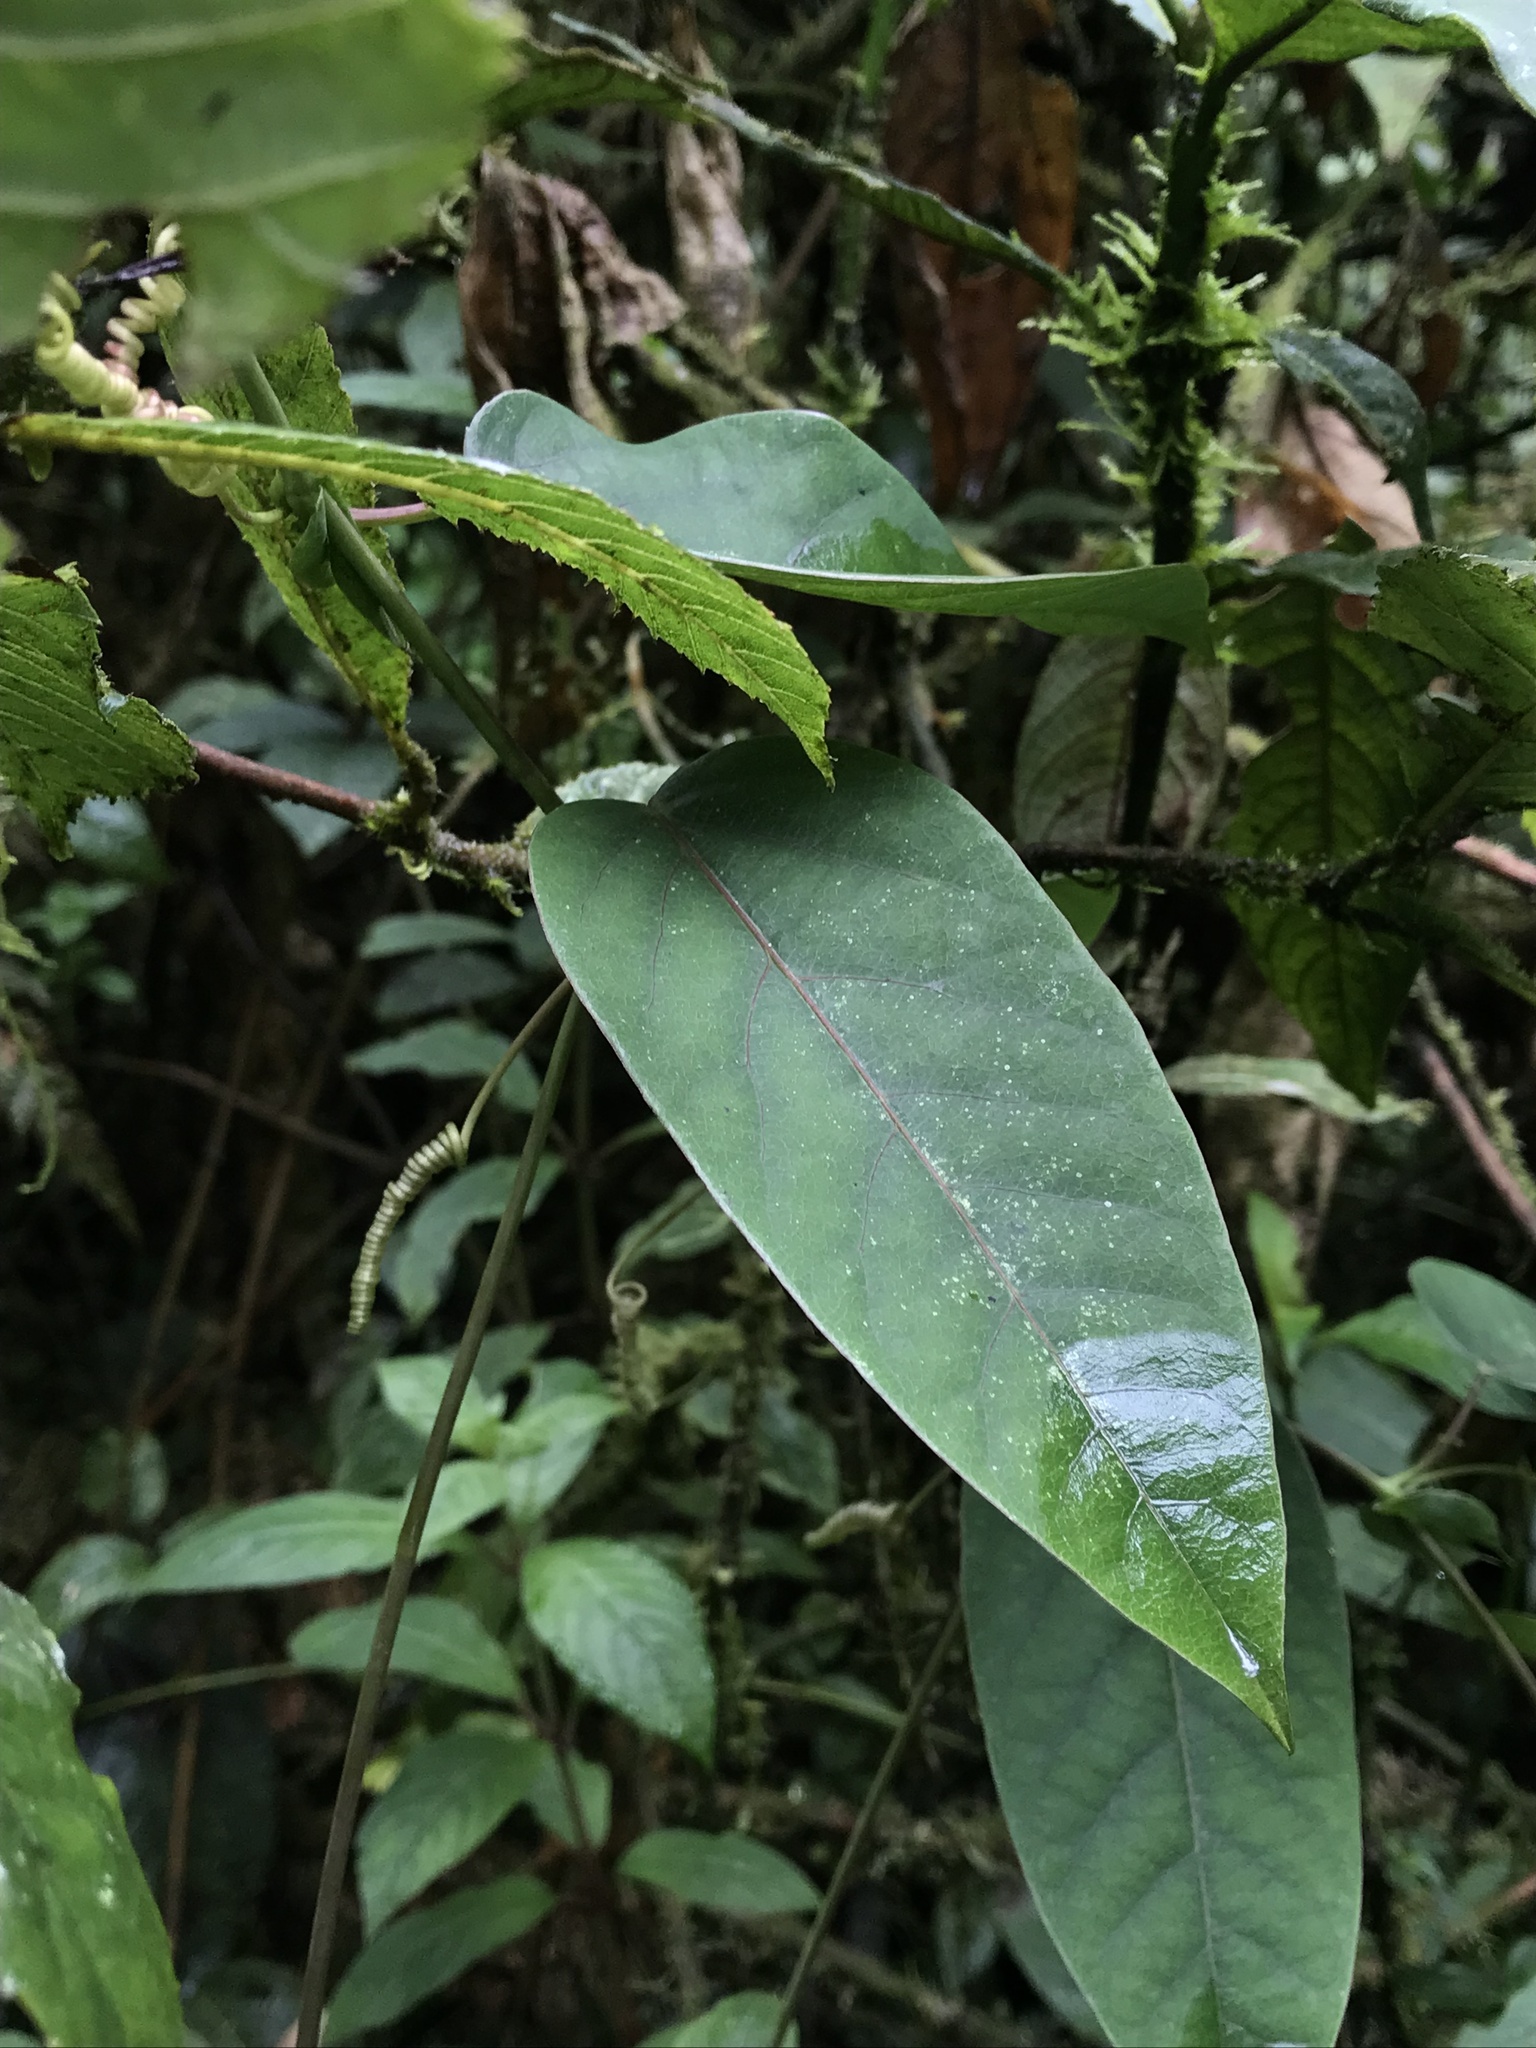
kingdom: Plantae
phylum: Tracheophyta
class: Magnoliopsida
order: Malpighiales
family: Passifloraceae
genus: Passiflora
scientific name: Passiflora longipes
